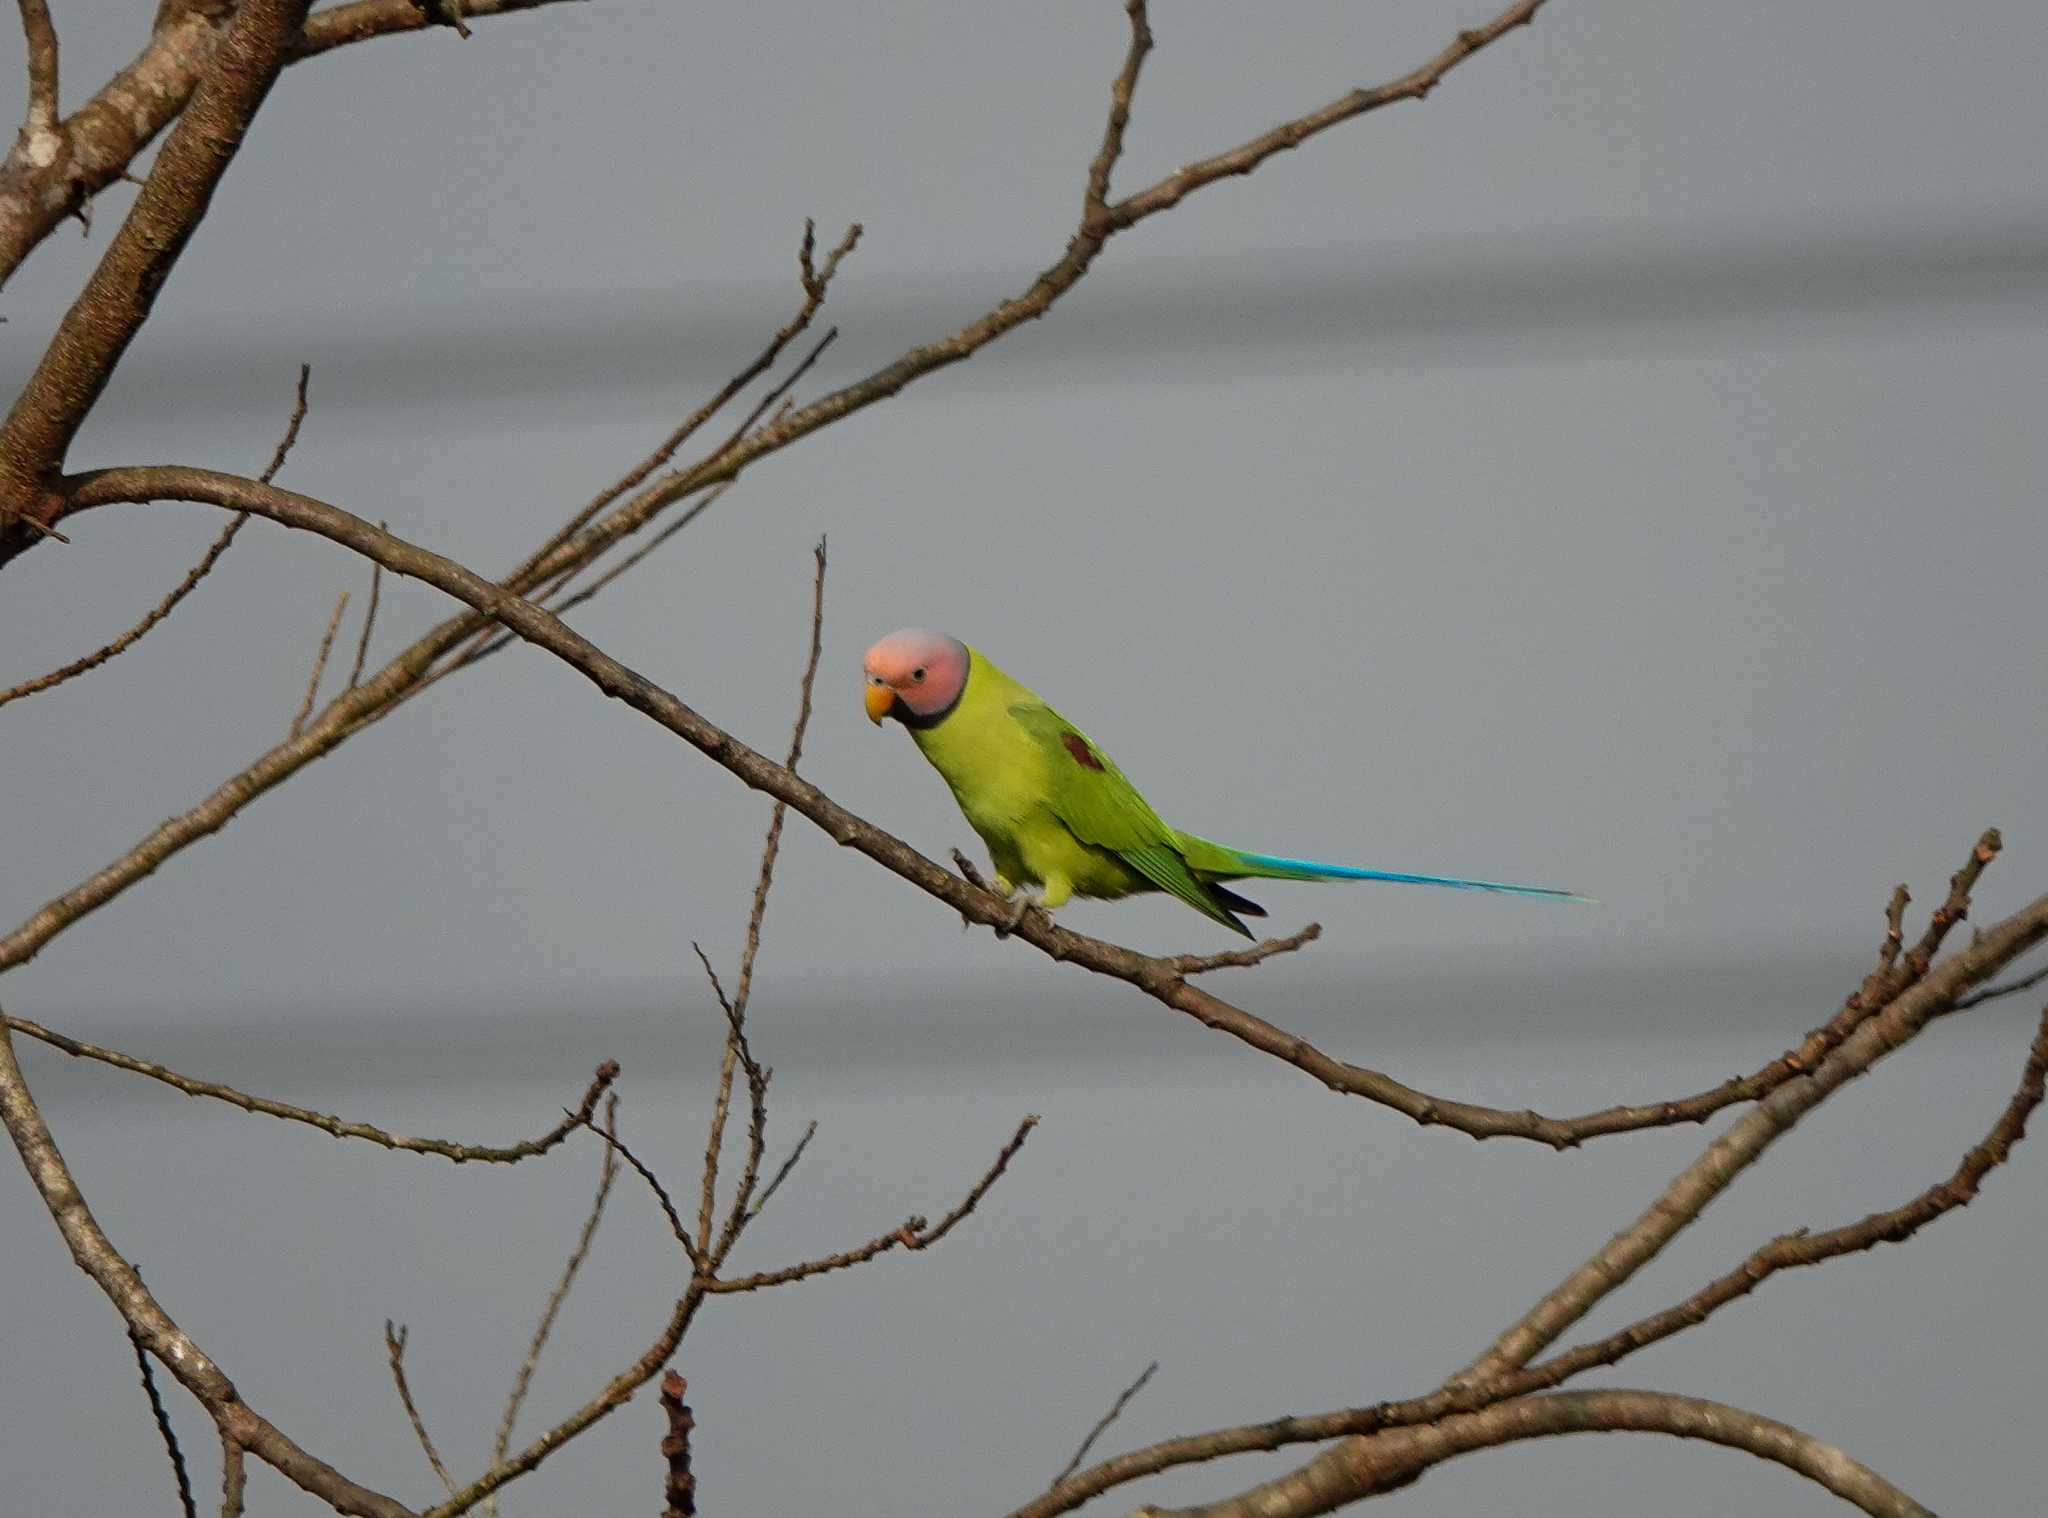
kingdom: Animalia
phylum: Chordata
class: Aves
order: Psittaciformes
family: Psittacidae
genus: Psittacula
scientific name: Psittacula roseata
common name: Blossom-headed parakeet
